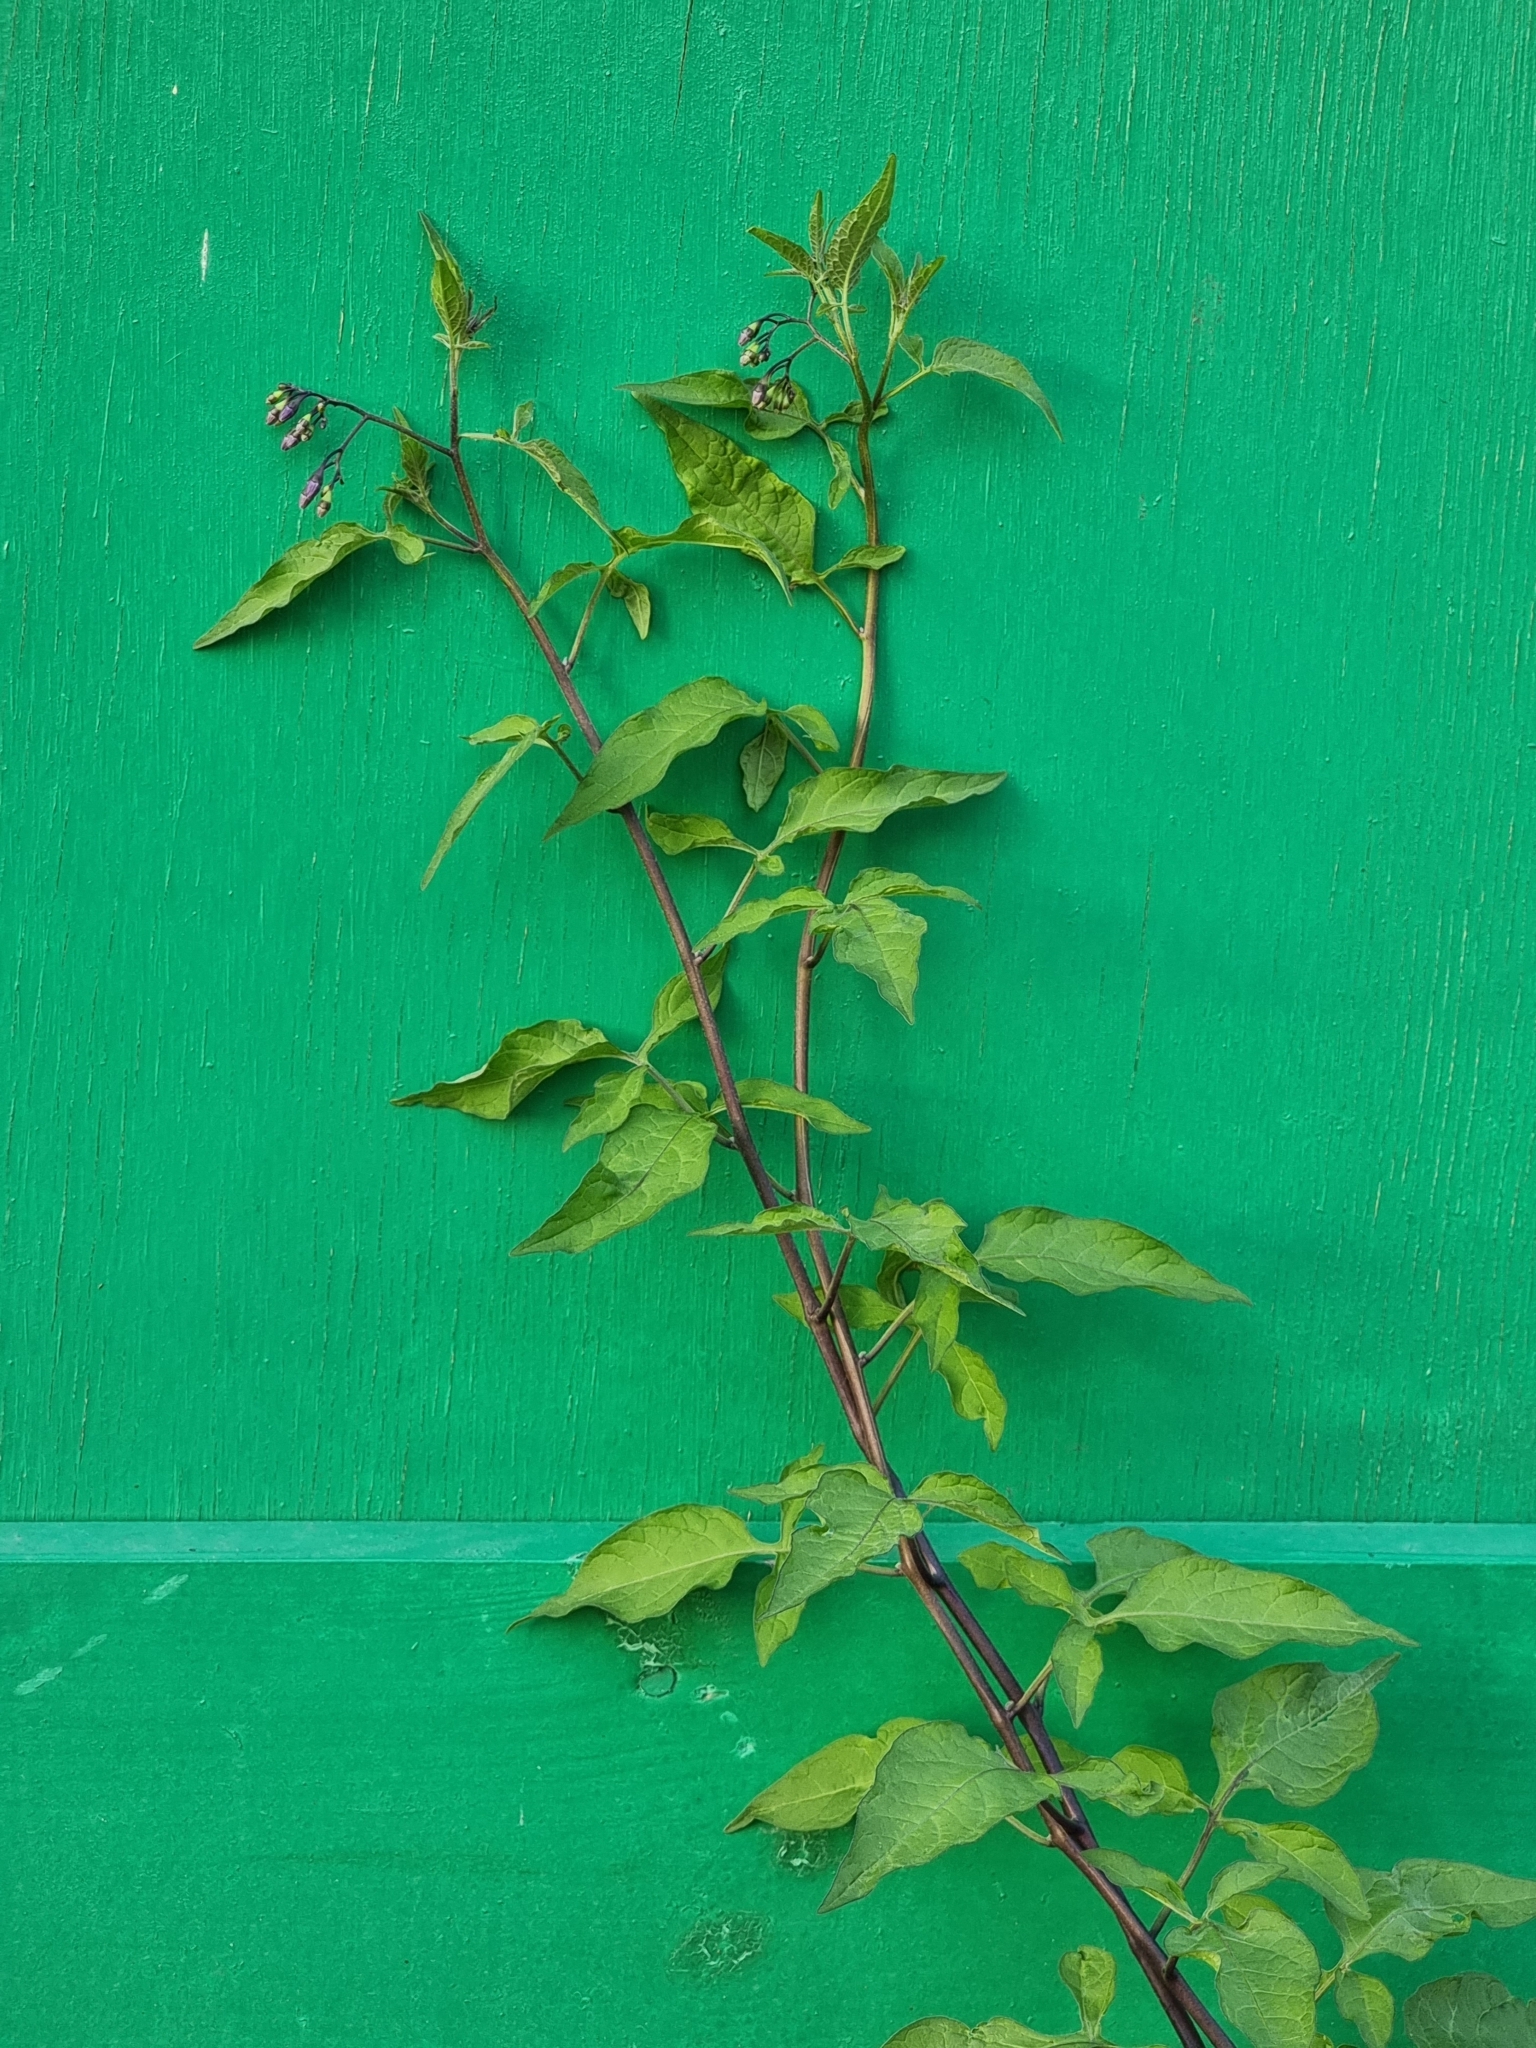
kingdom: Plantae
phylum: Tracheophyta
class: Magnoliopsida
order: Solanales
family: Solanaceae
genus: Solanum
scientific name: Solanum dulcamara
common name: Climbing nightshade
